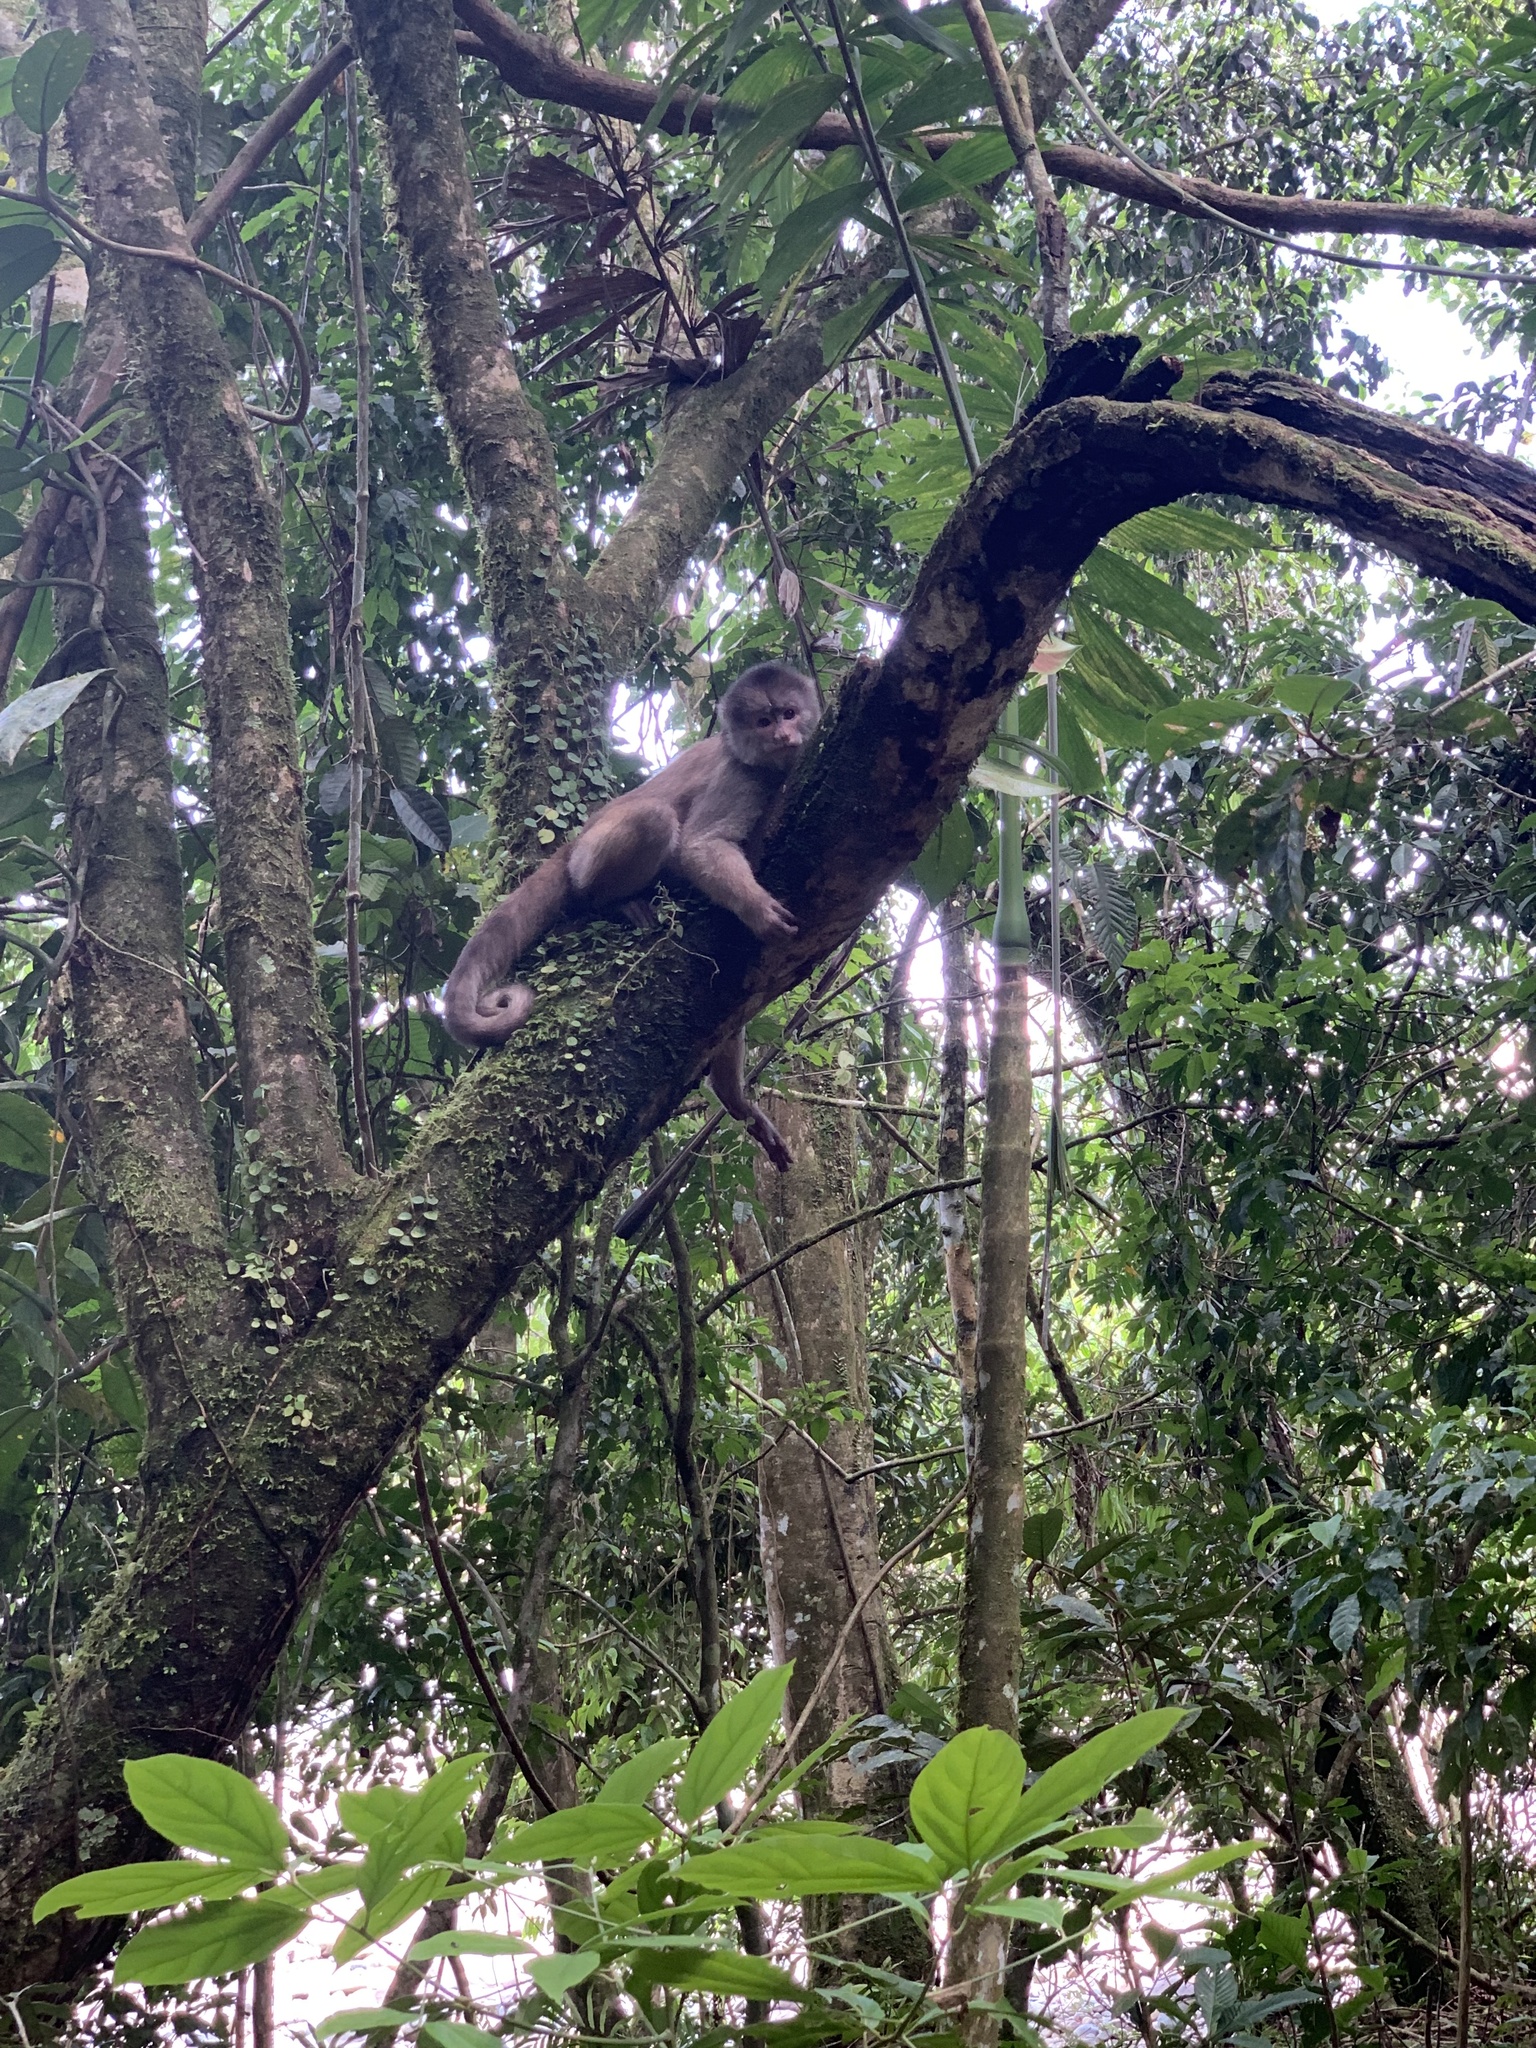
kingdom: Animalia
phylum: Chordata
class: Mammalia
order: Primates
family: Cebidae
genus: Cebus
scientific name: Cebus yuracus
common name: Peruvian white-fronted capuchin
